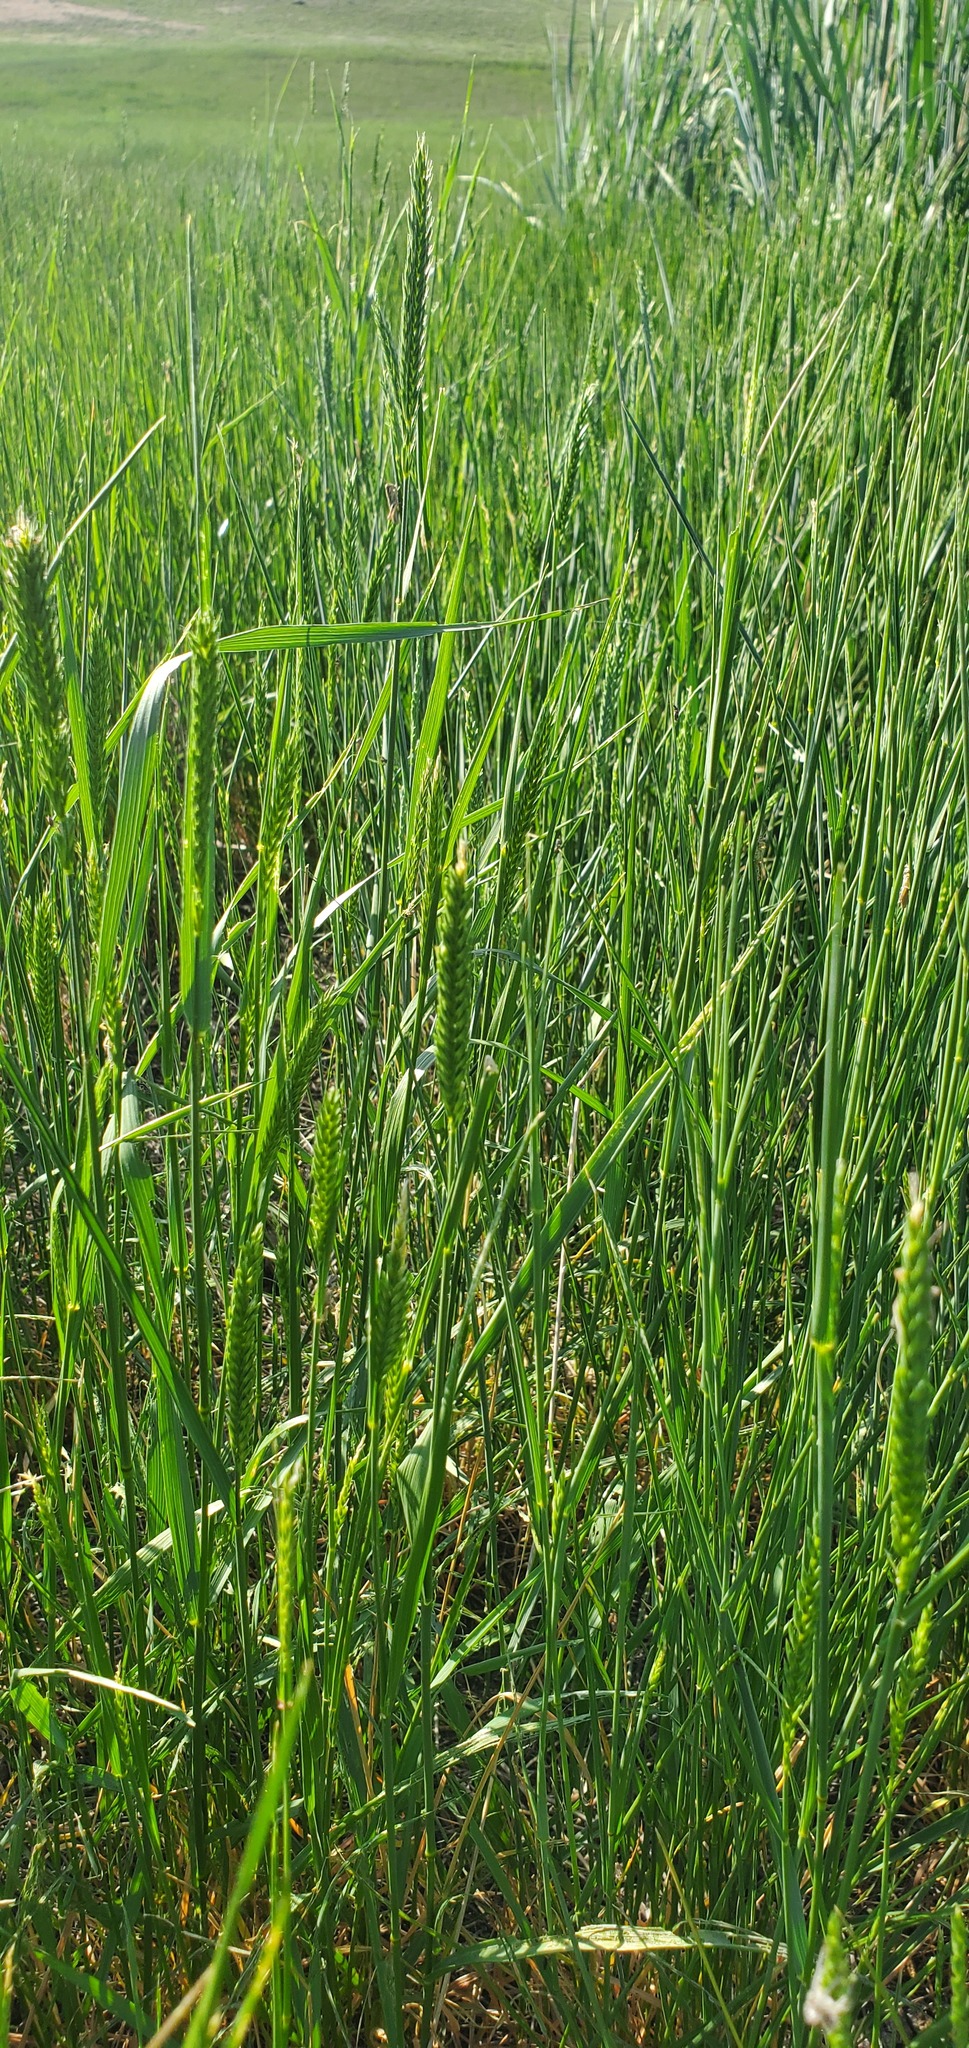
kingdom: Plantae
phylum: Tracheophyta
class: Liliopsida
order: Poales
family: Poaceae
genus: Agropyron
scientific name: Agropyron cristatum
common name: Crested wheatgrass
